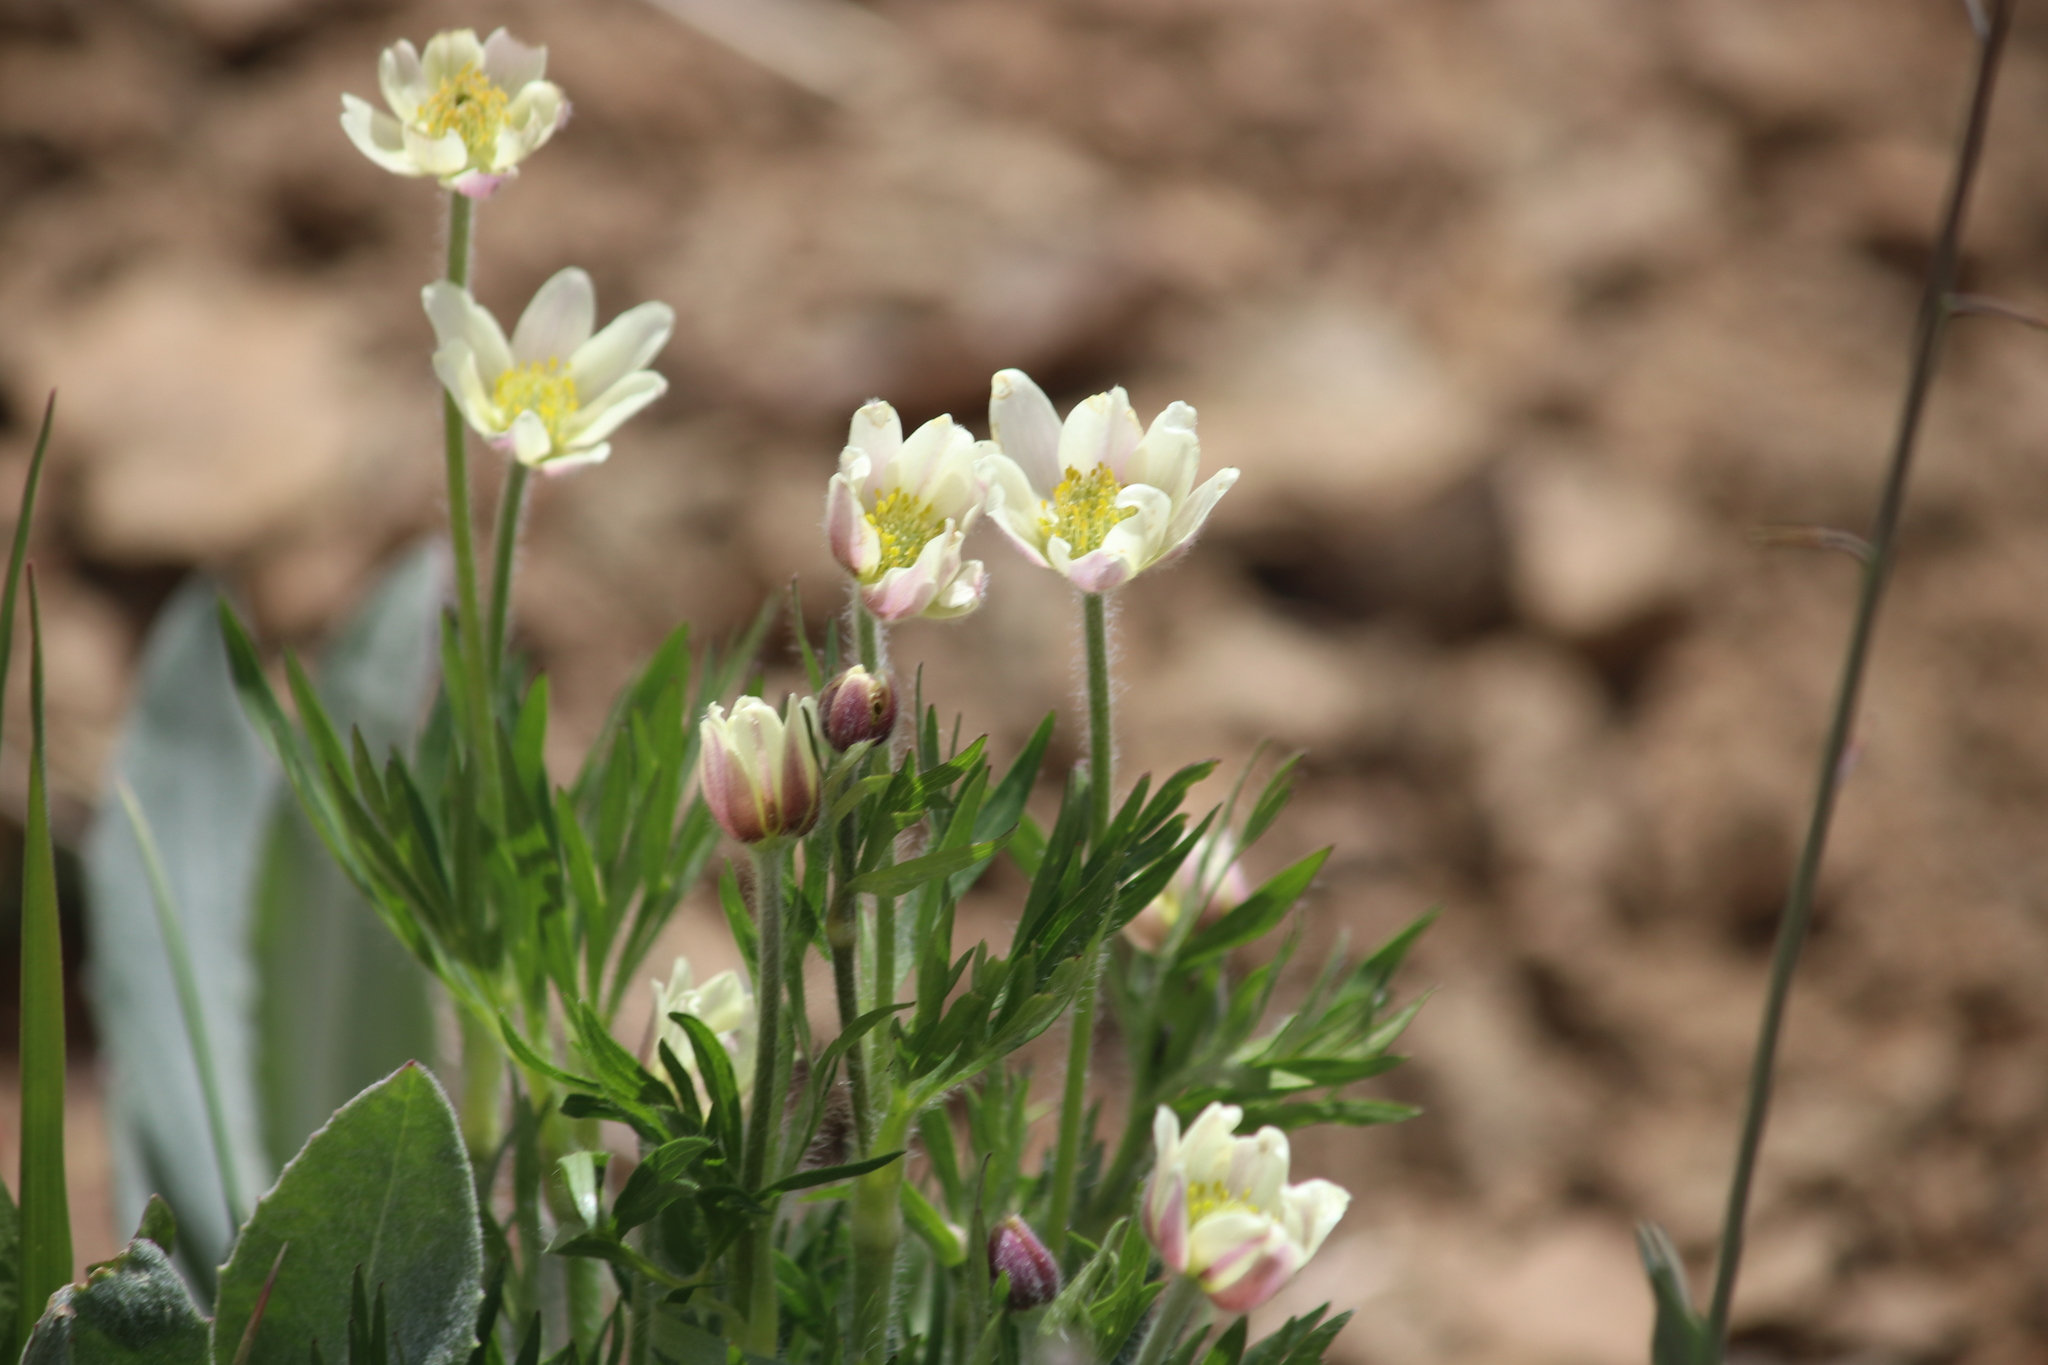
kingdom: Plantae
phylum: Tracheophyta
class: Magnoliopsida
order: Ranunculales
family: Ranunculaceae
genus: Anemone
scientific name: Anemone multifida
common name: Bird's-foot anemone
